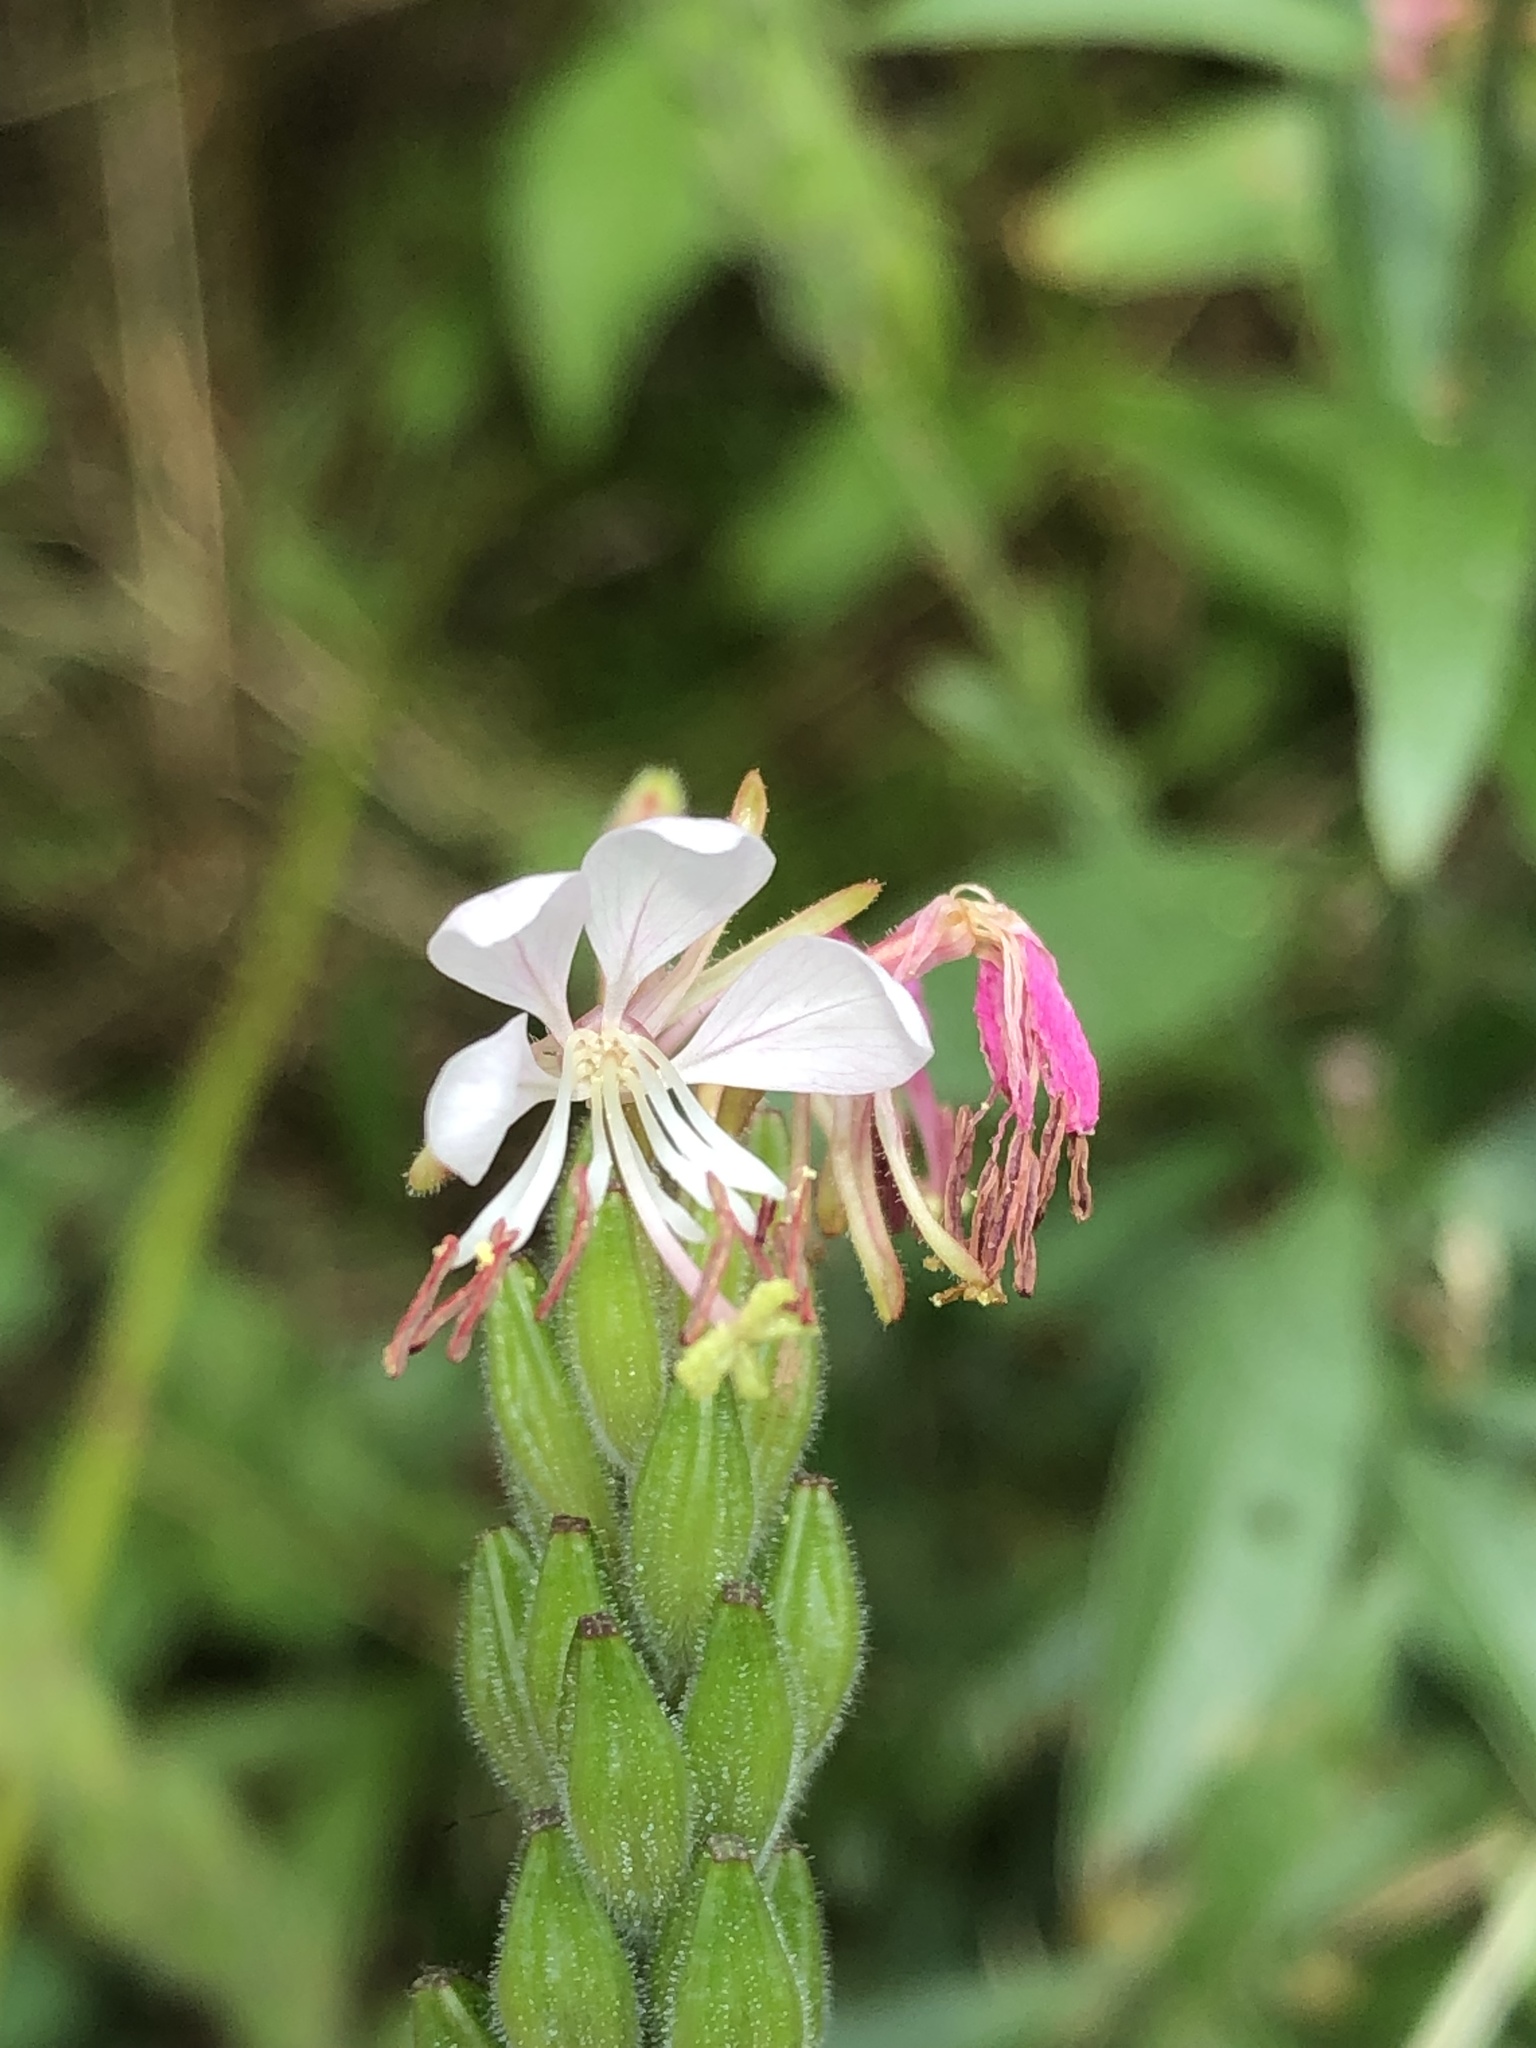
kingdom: Plantae
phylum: Tracheophyta
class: Magnoliopsida
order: Myrtales
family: Onagraceae
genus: Oenothera
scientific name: Oenothera gaura
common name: Biennial beeblossom
